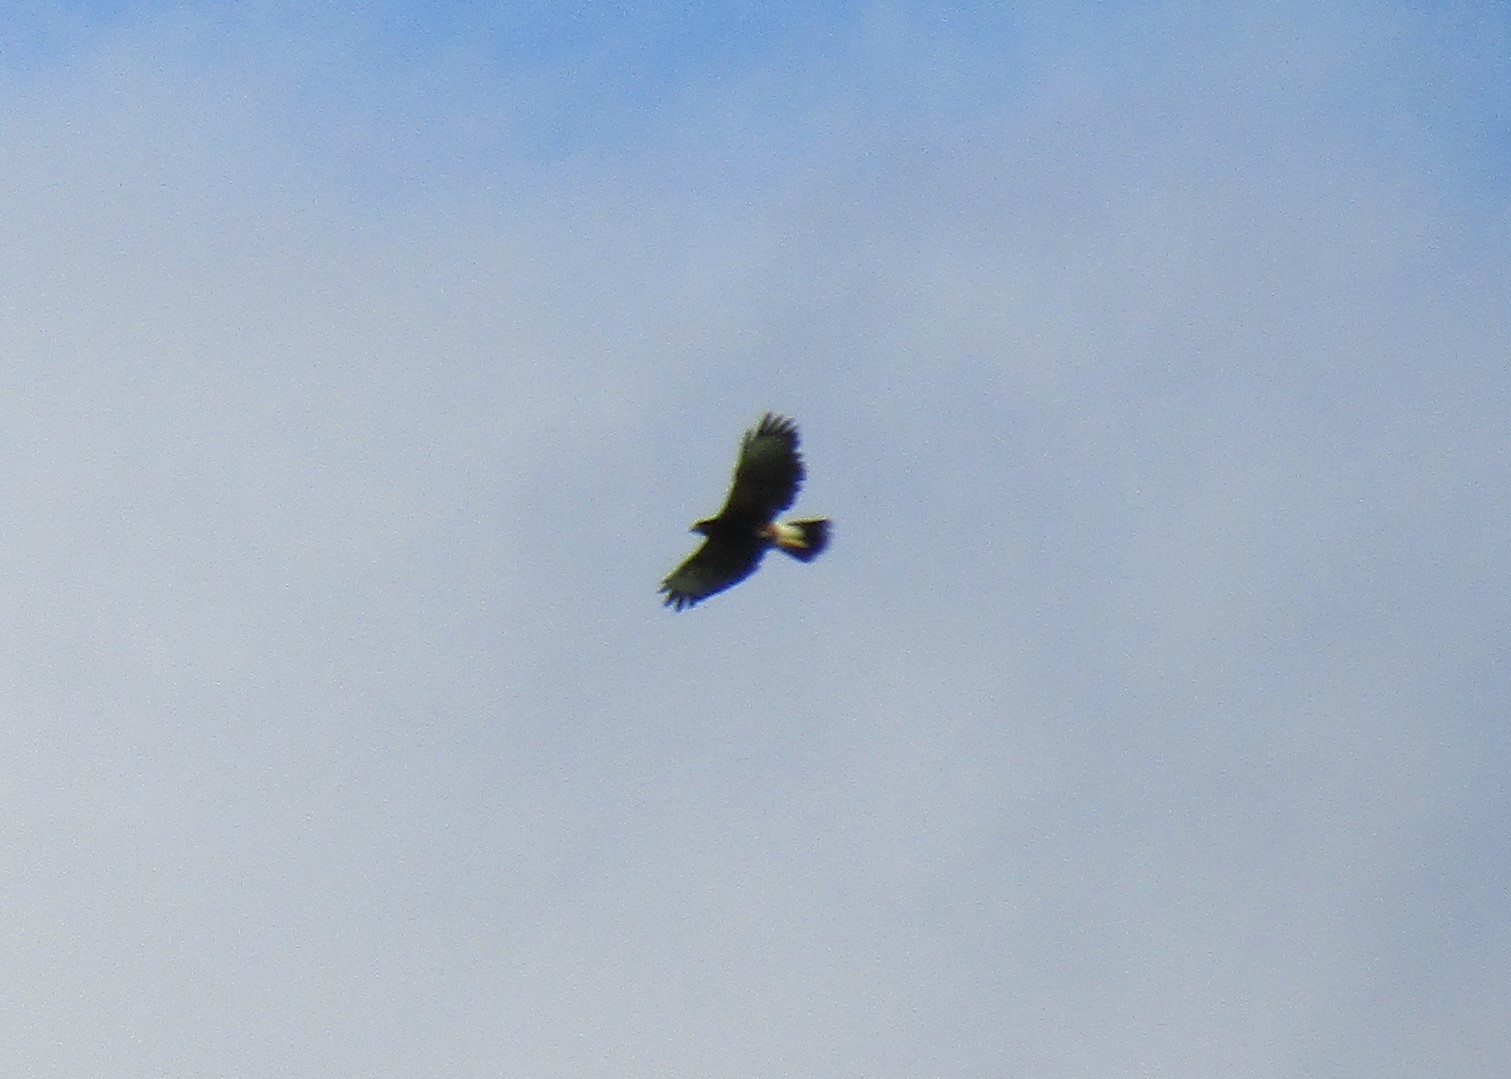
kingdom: Animalia
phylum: Chordata
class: Aves
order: Accipitriformes
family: Accipitridae
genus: Parabuteo
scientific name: Parabuteo unicinctus
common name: Harris's hawk
